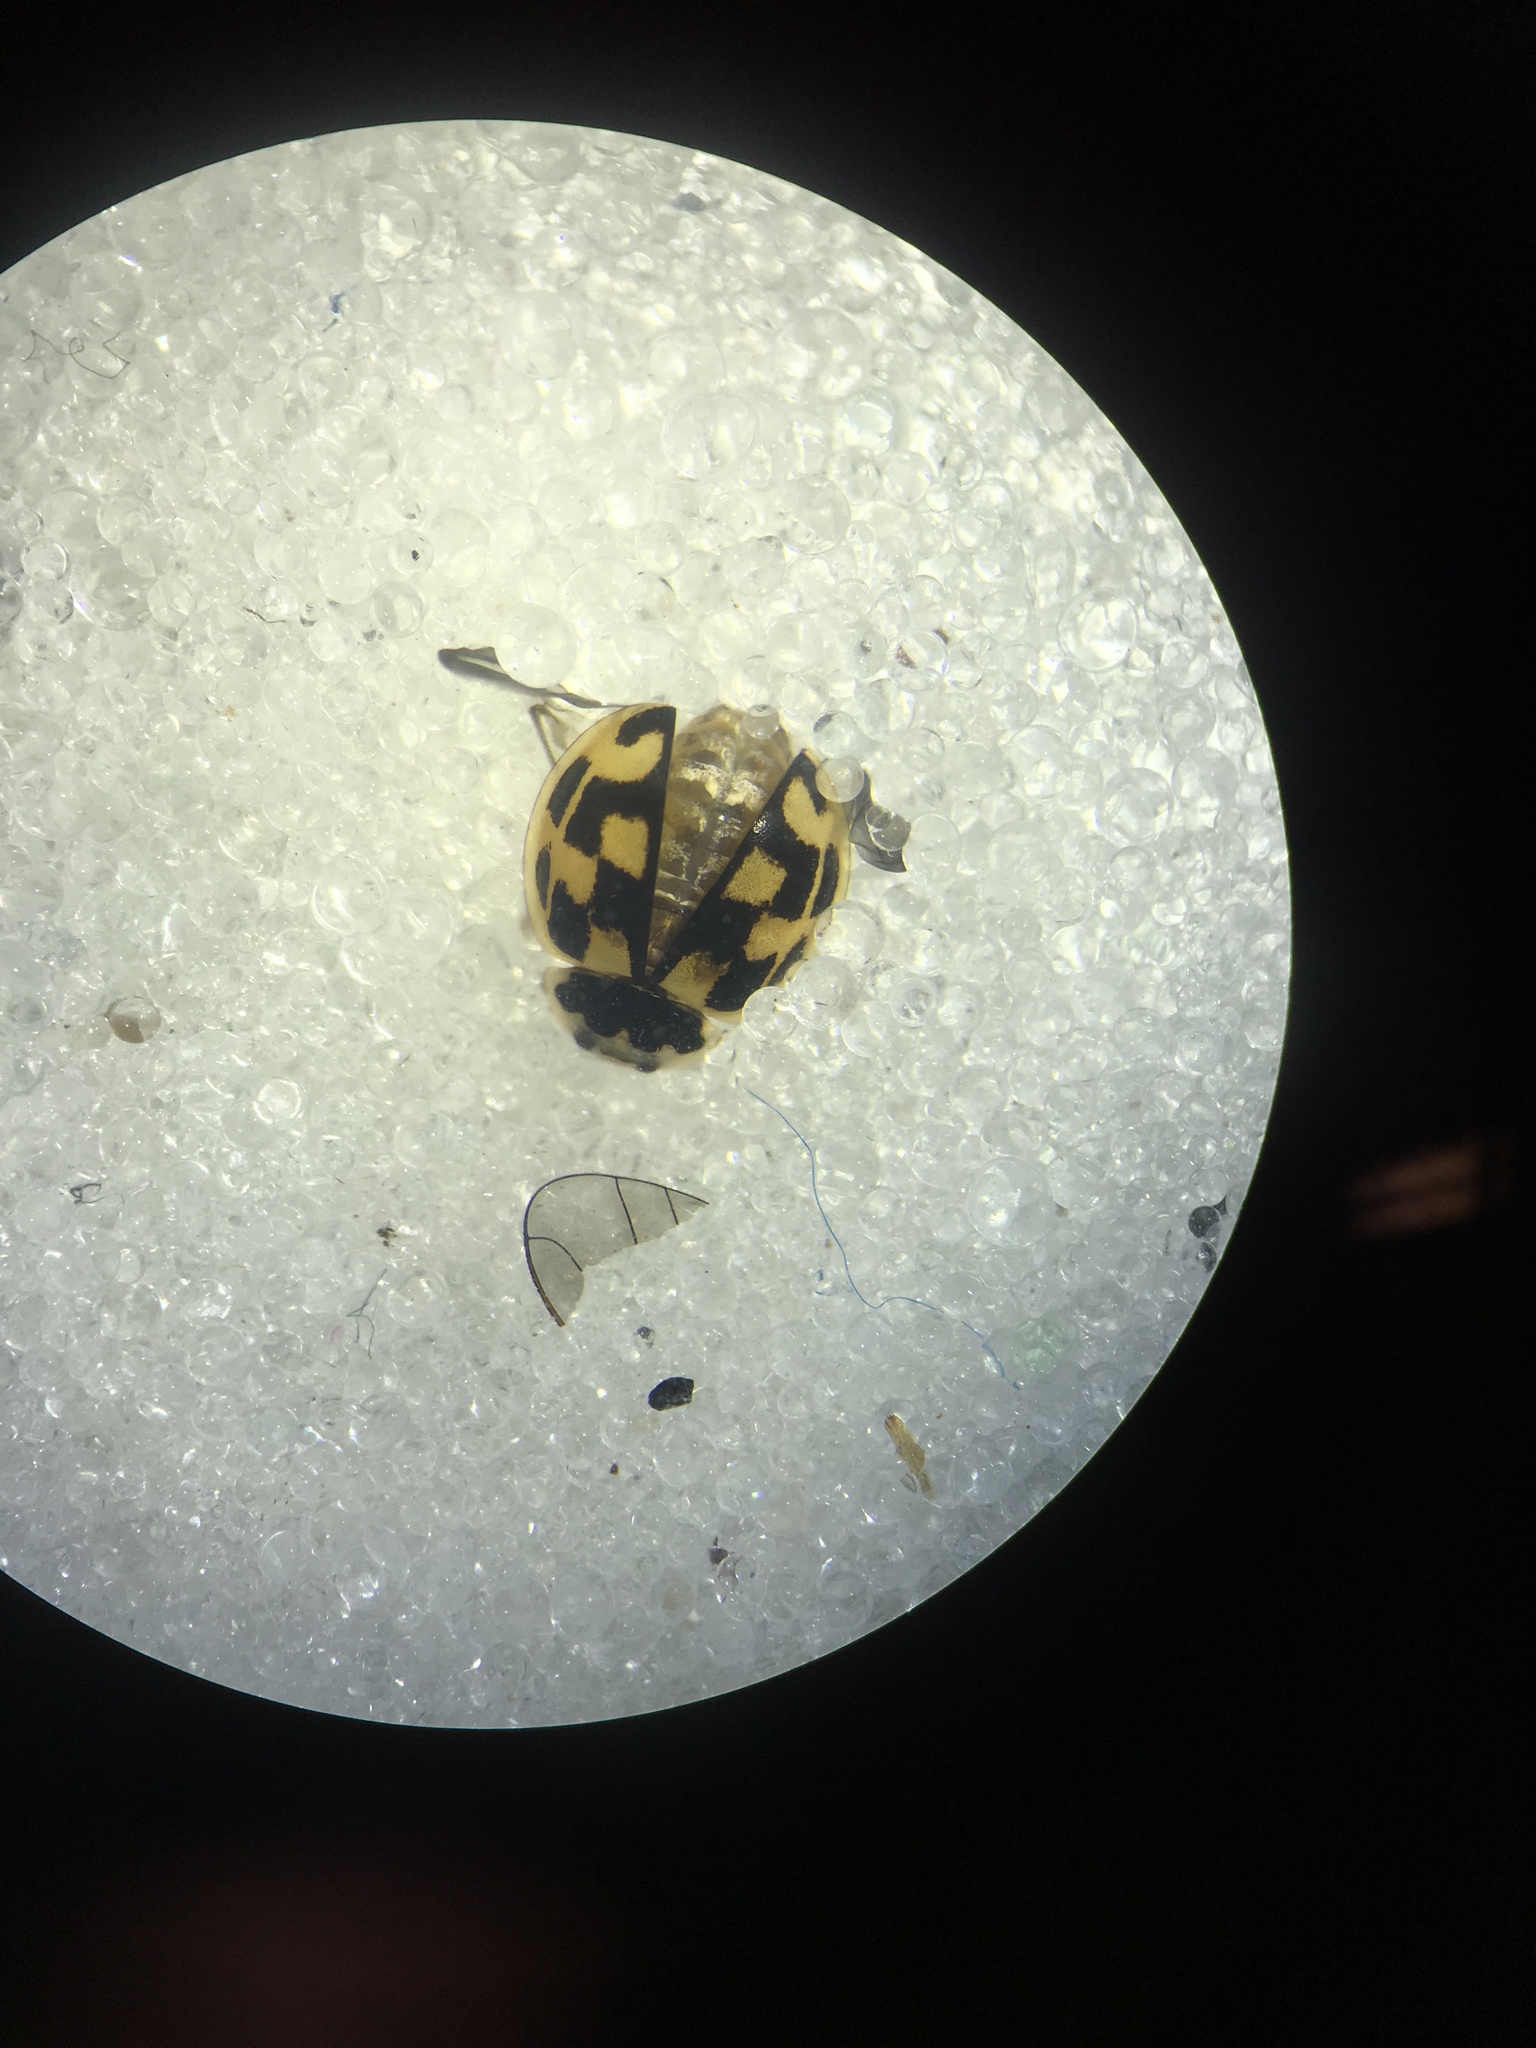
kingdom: Animalia
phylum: Arthropoda
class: Insecta
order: Coleoptera
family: Coccinellidae
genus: Propylaea
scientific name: Propylaea quatuordecimpunctata
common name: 14-spotted ladybird beetle
